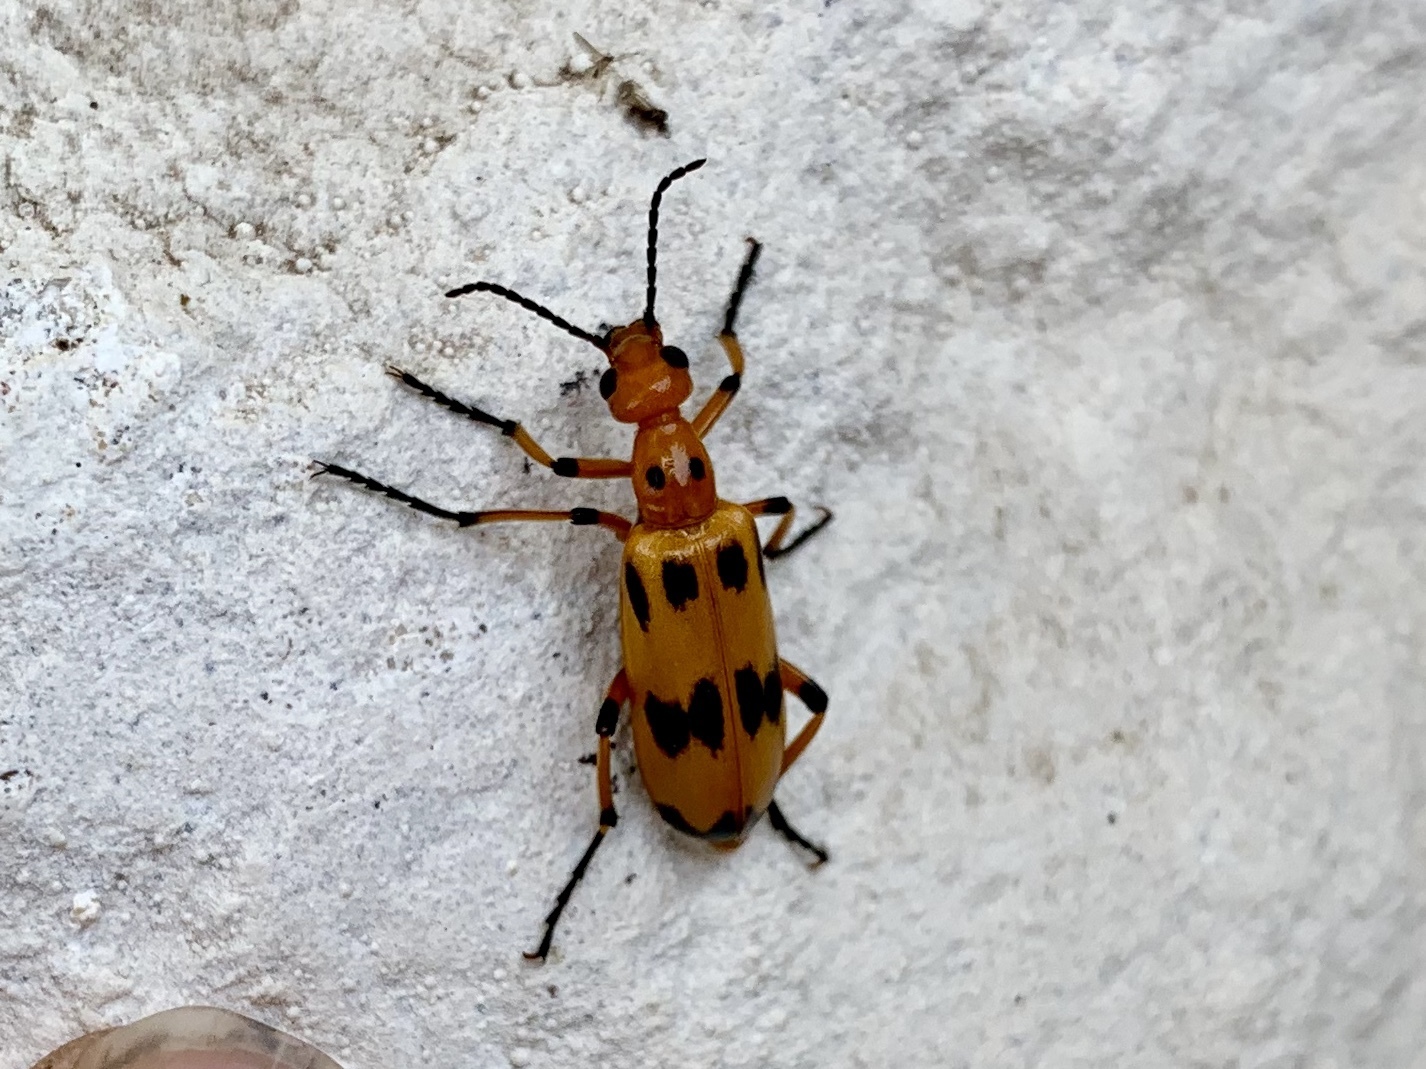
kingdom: Animalia
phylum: Arthropoda
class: Insecta
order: Coleoptera
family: Meloidae
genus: Pyrota
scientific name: Pyrota fasciata
